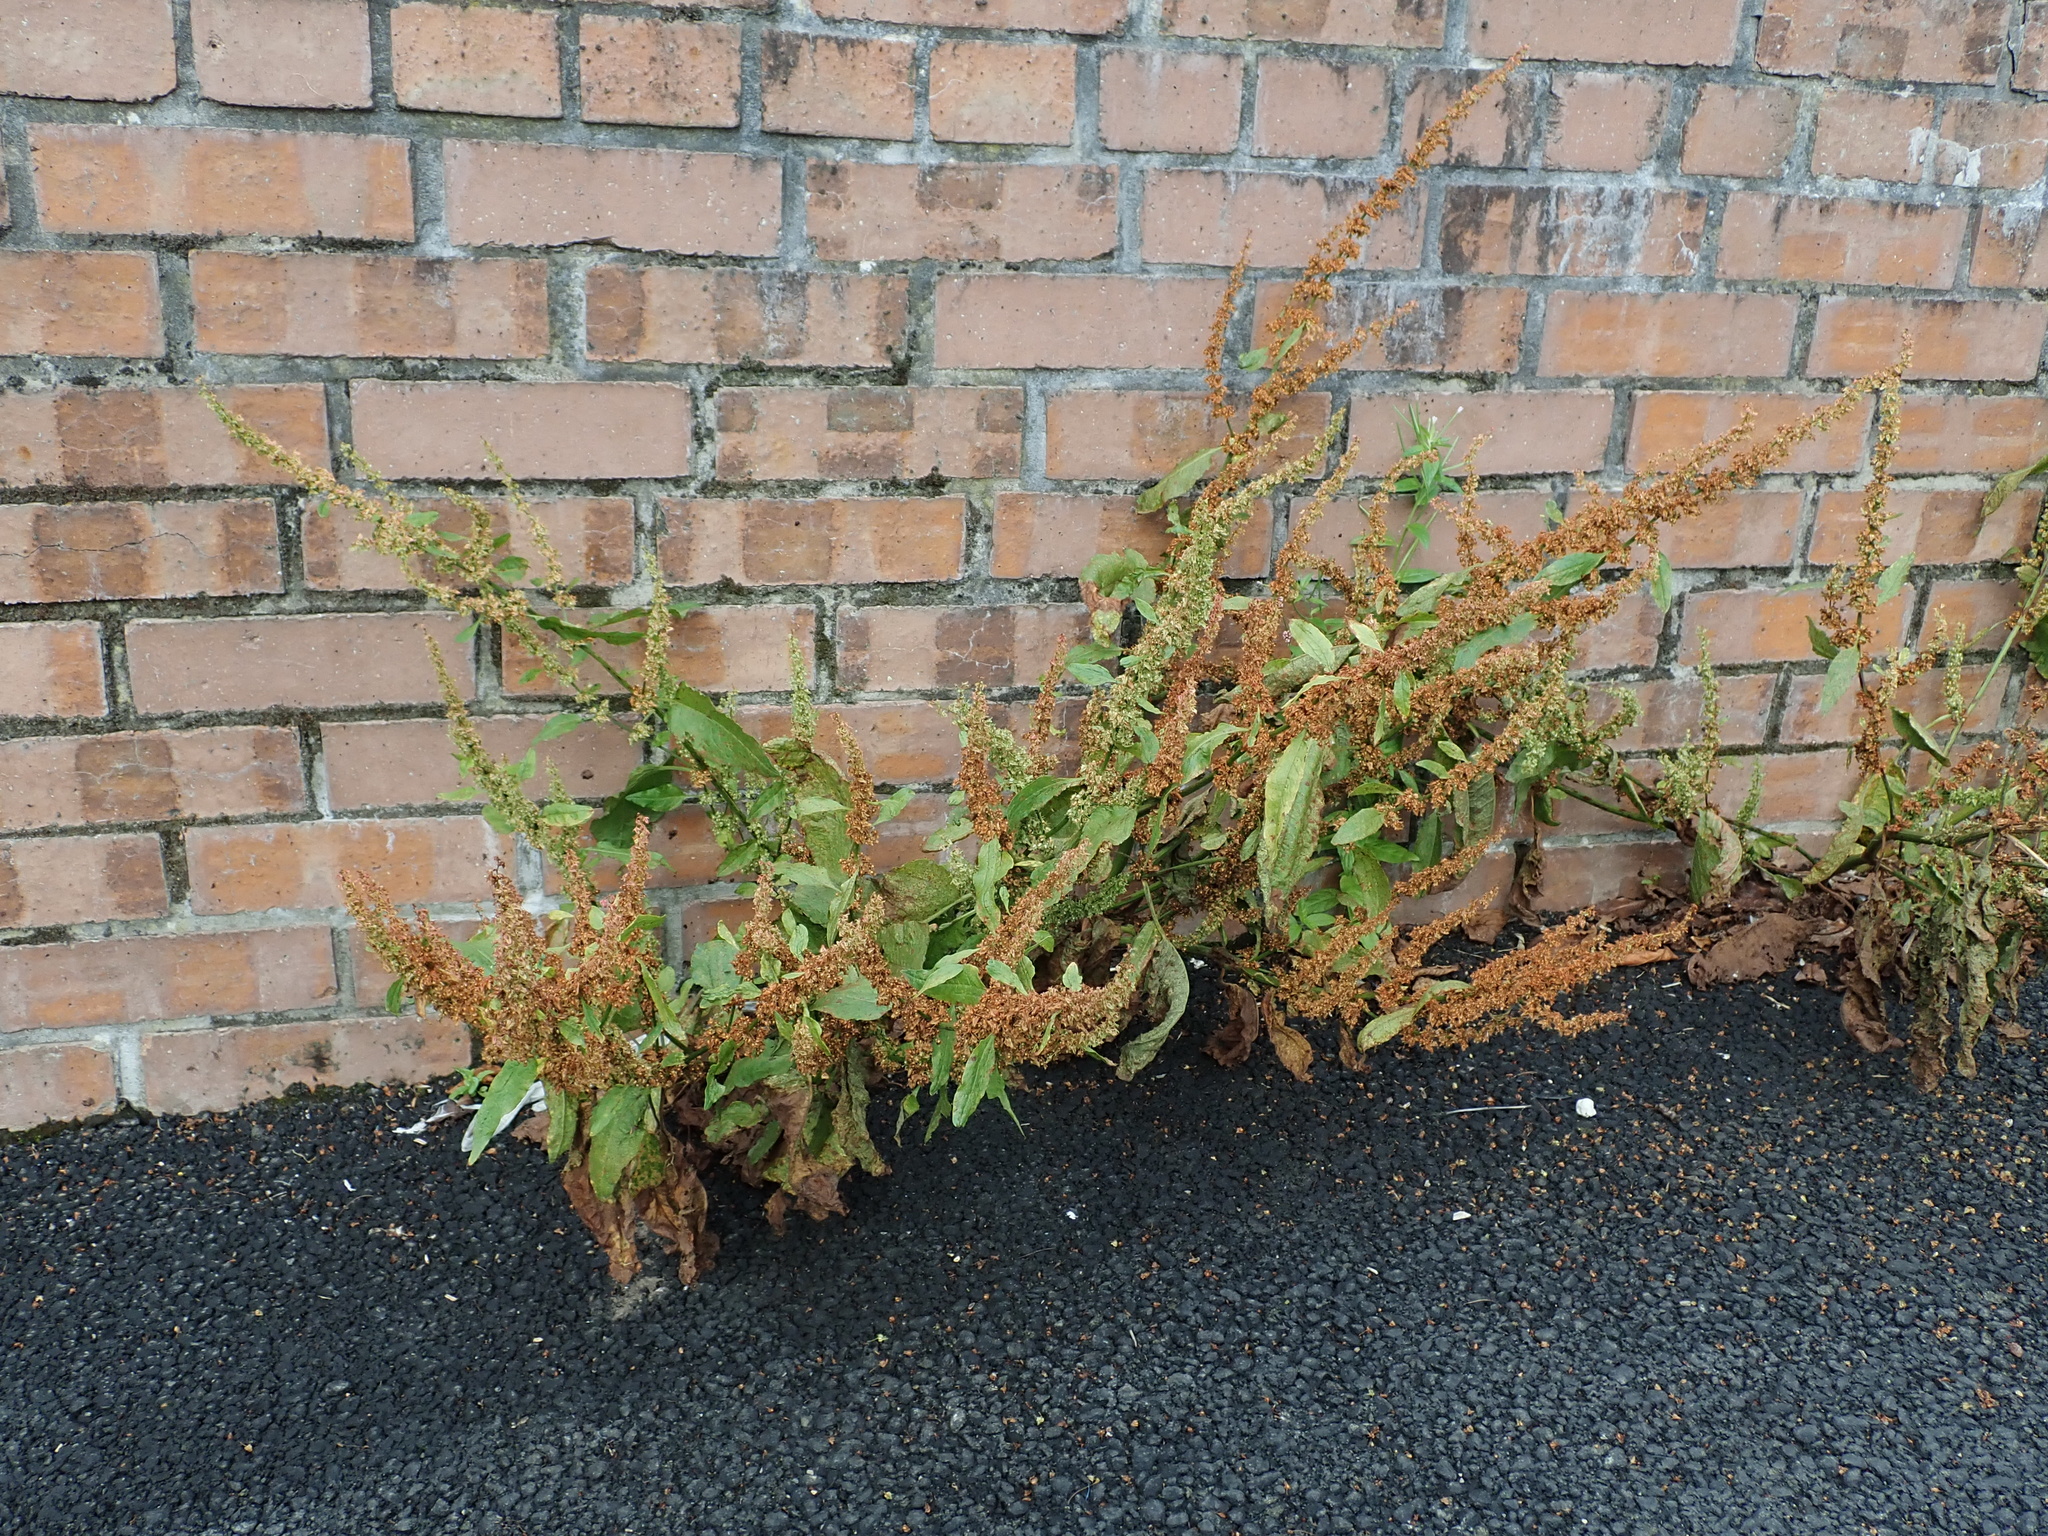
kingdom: Plantae
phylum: Tracheophyta
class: Magnoliopsida
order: Caryophyllales
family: Polygonaceae
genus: Rumex
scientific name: Rumex obtusifolius
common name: Bitter dock
